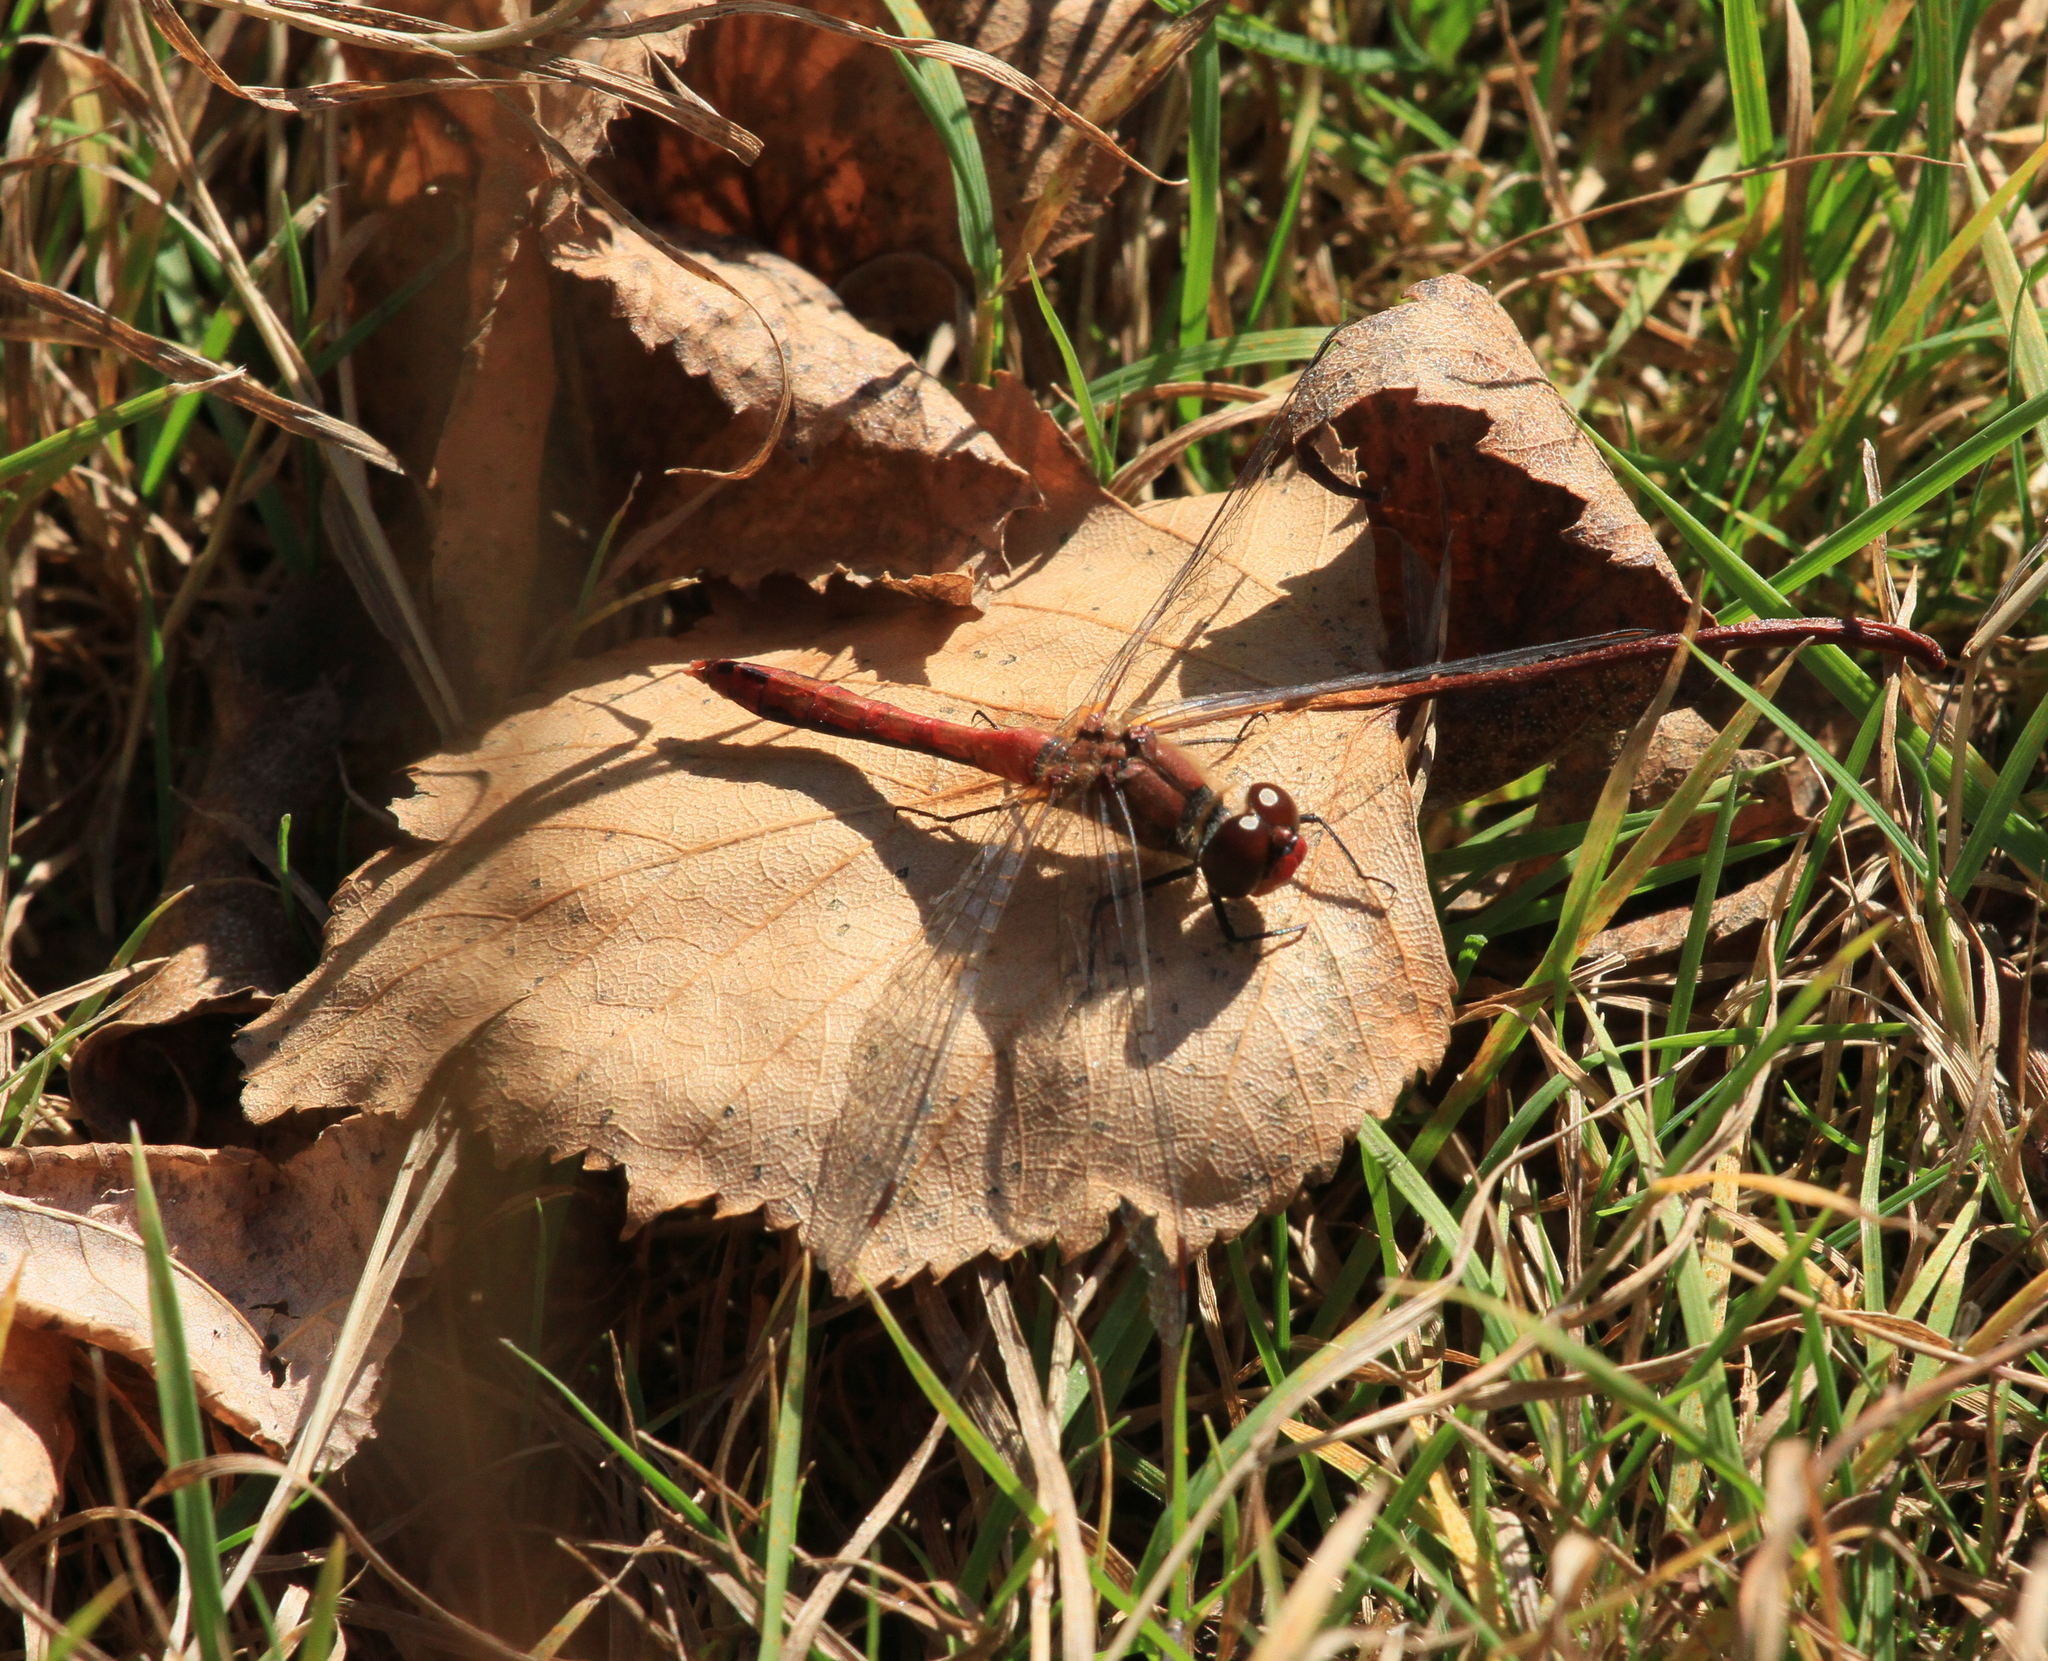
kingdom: Animalia
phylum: Arthropoda
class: Insecta
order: Odonata
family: Libellulidae
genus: Sympetrum
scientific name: Sympetrum sanguineum
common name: Ruddy darter
